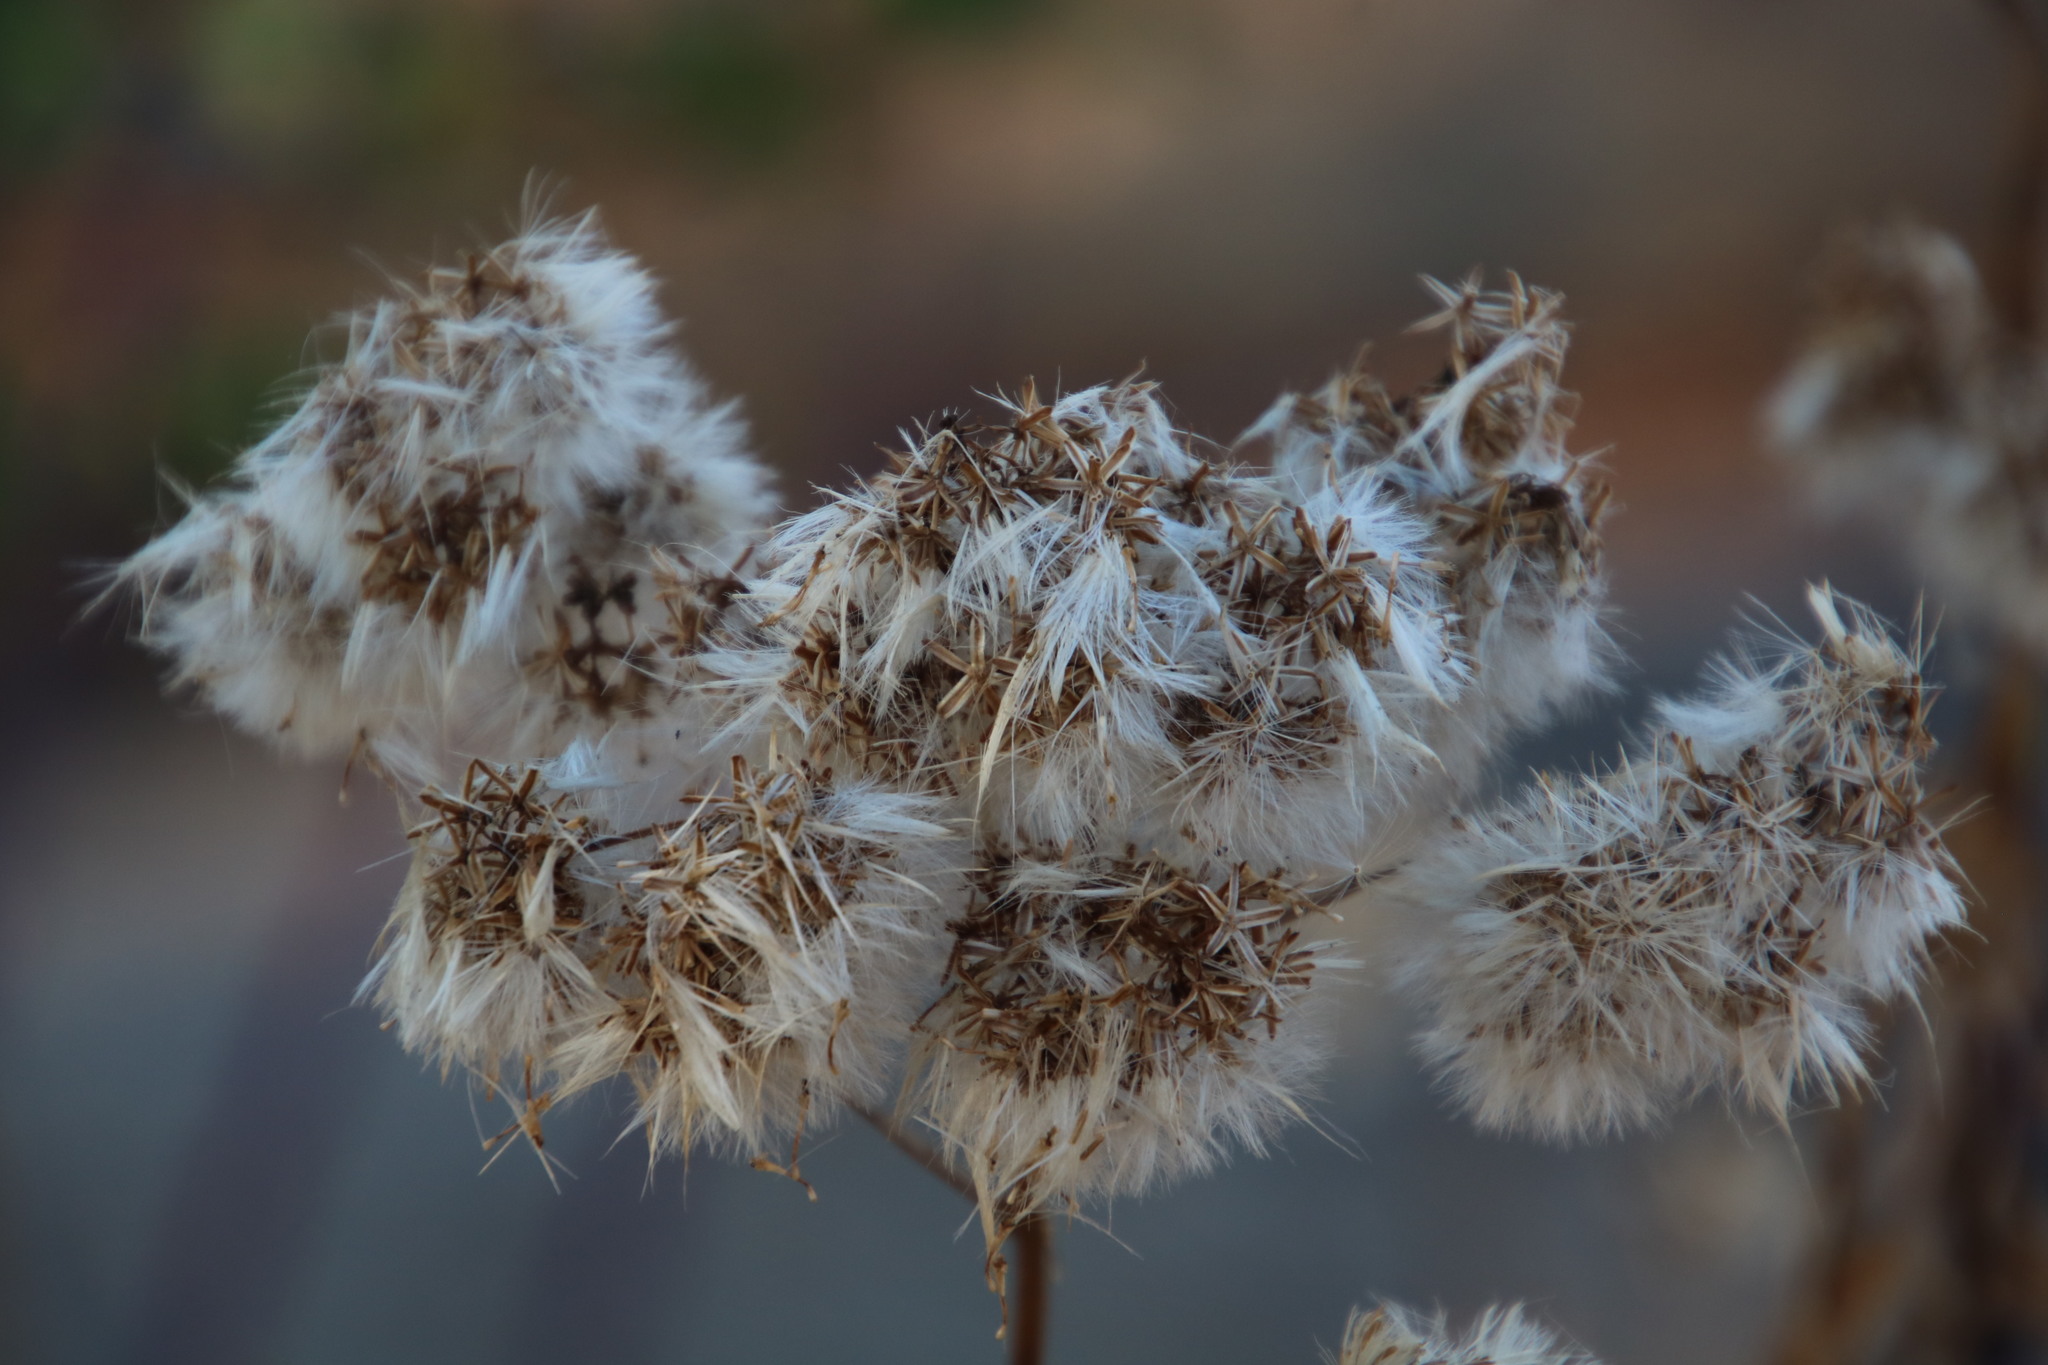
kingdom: Plantae
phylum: Tracheophyta
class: Magnoliopsida
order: Asterales
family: Asteraceae
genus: Senecio
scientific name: Senecio brachypodus
